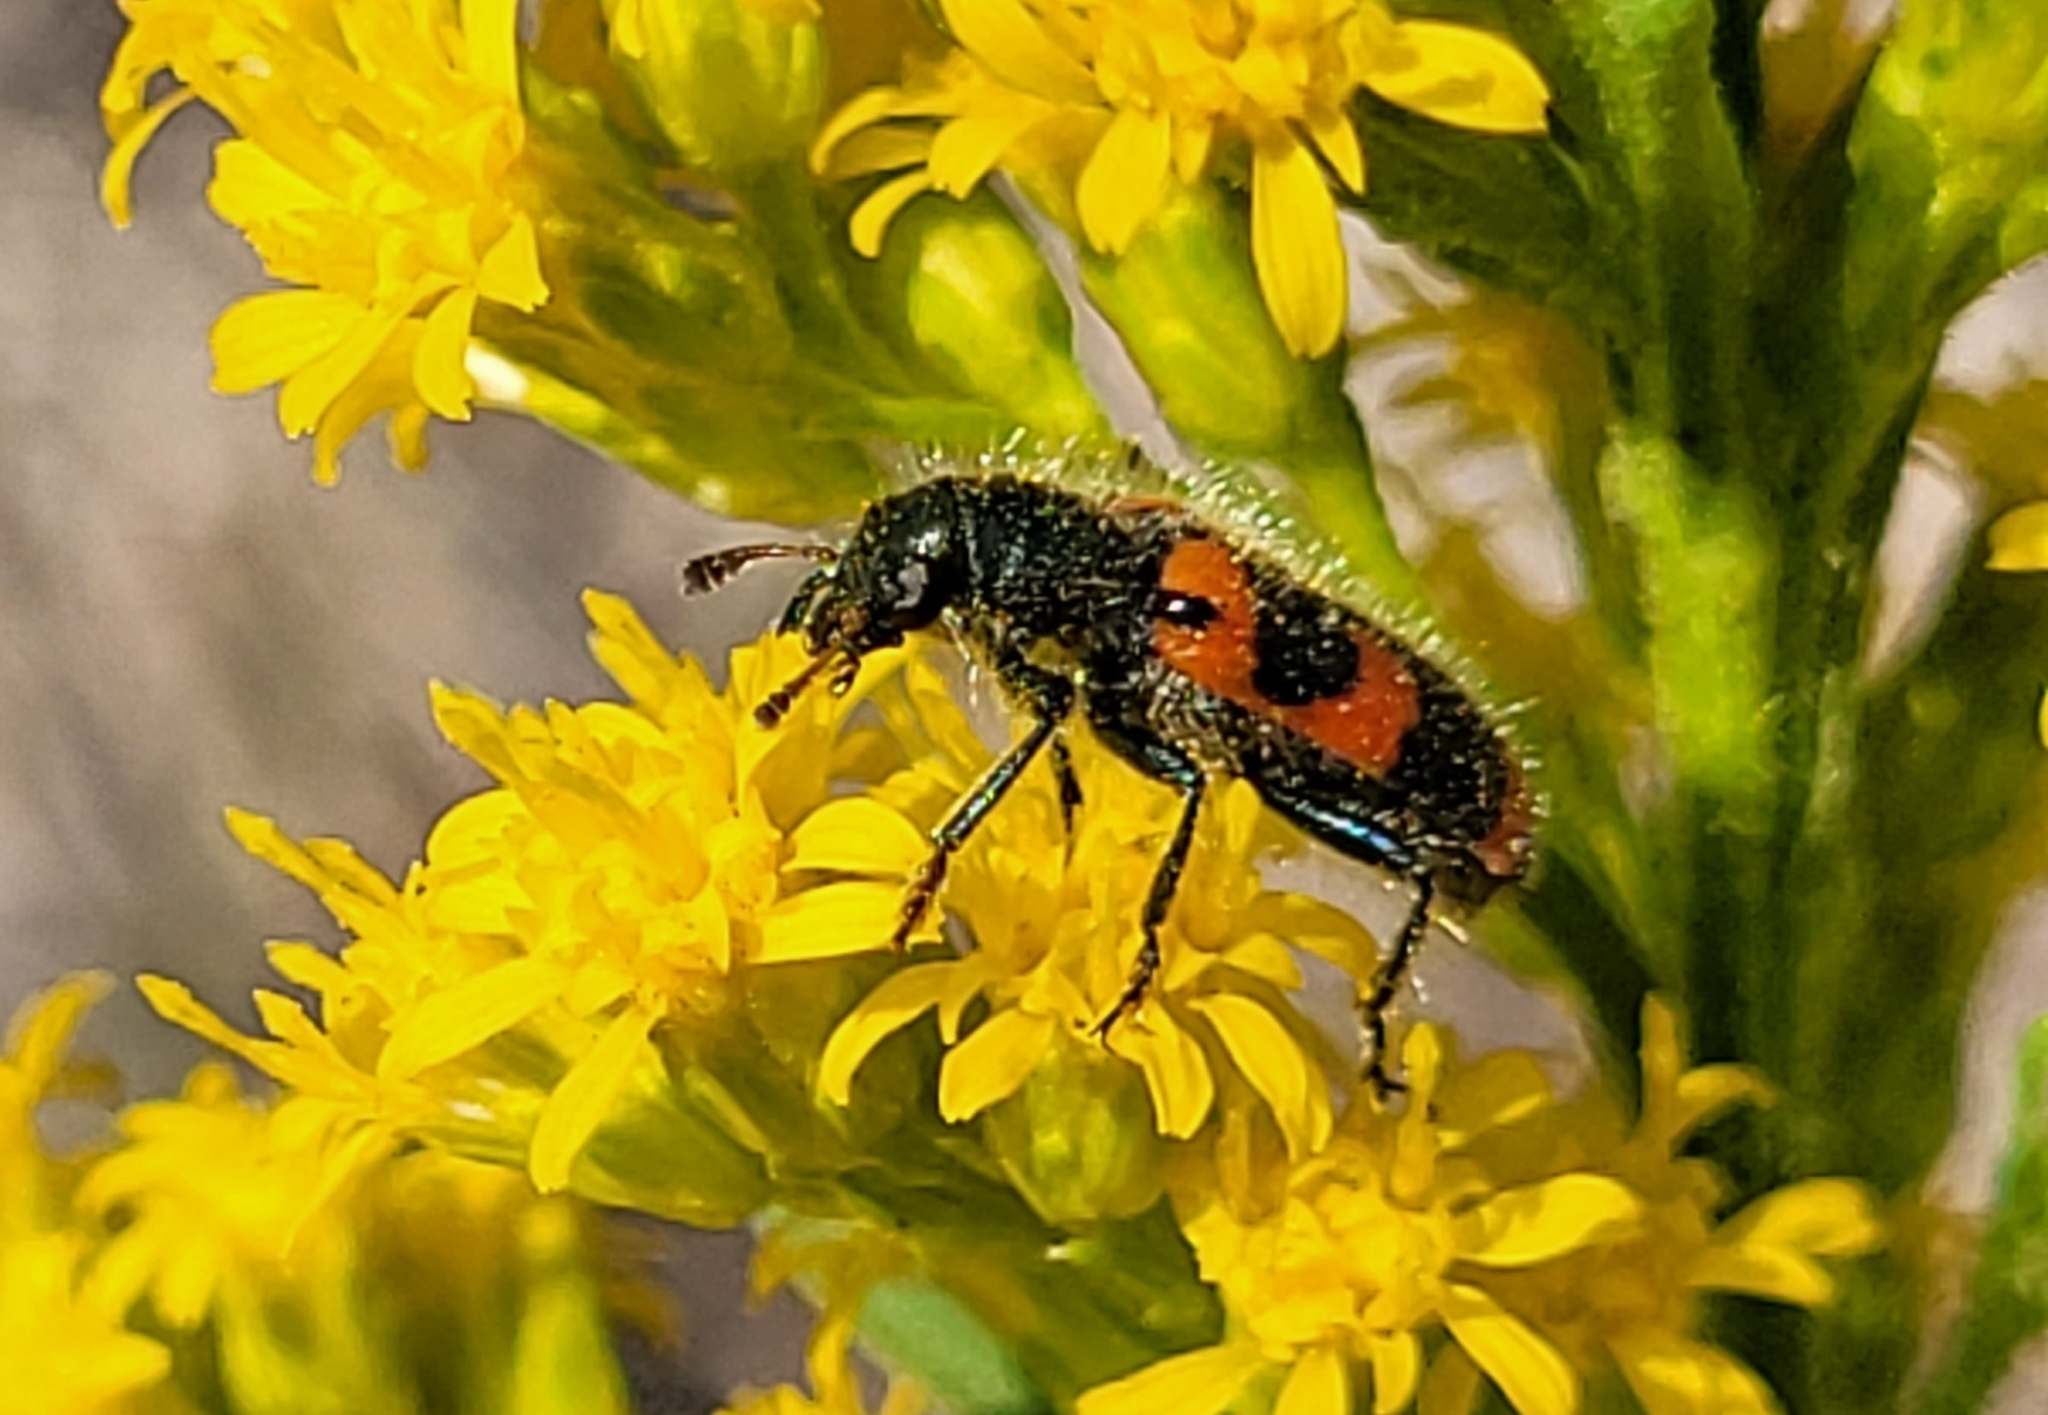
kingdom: Animalia
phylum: Arthropoda
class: Insecta
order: Coleoptera
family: Cleridae
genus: Trichodes
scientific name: Trichodes nutalli
